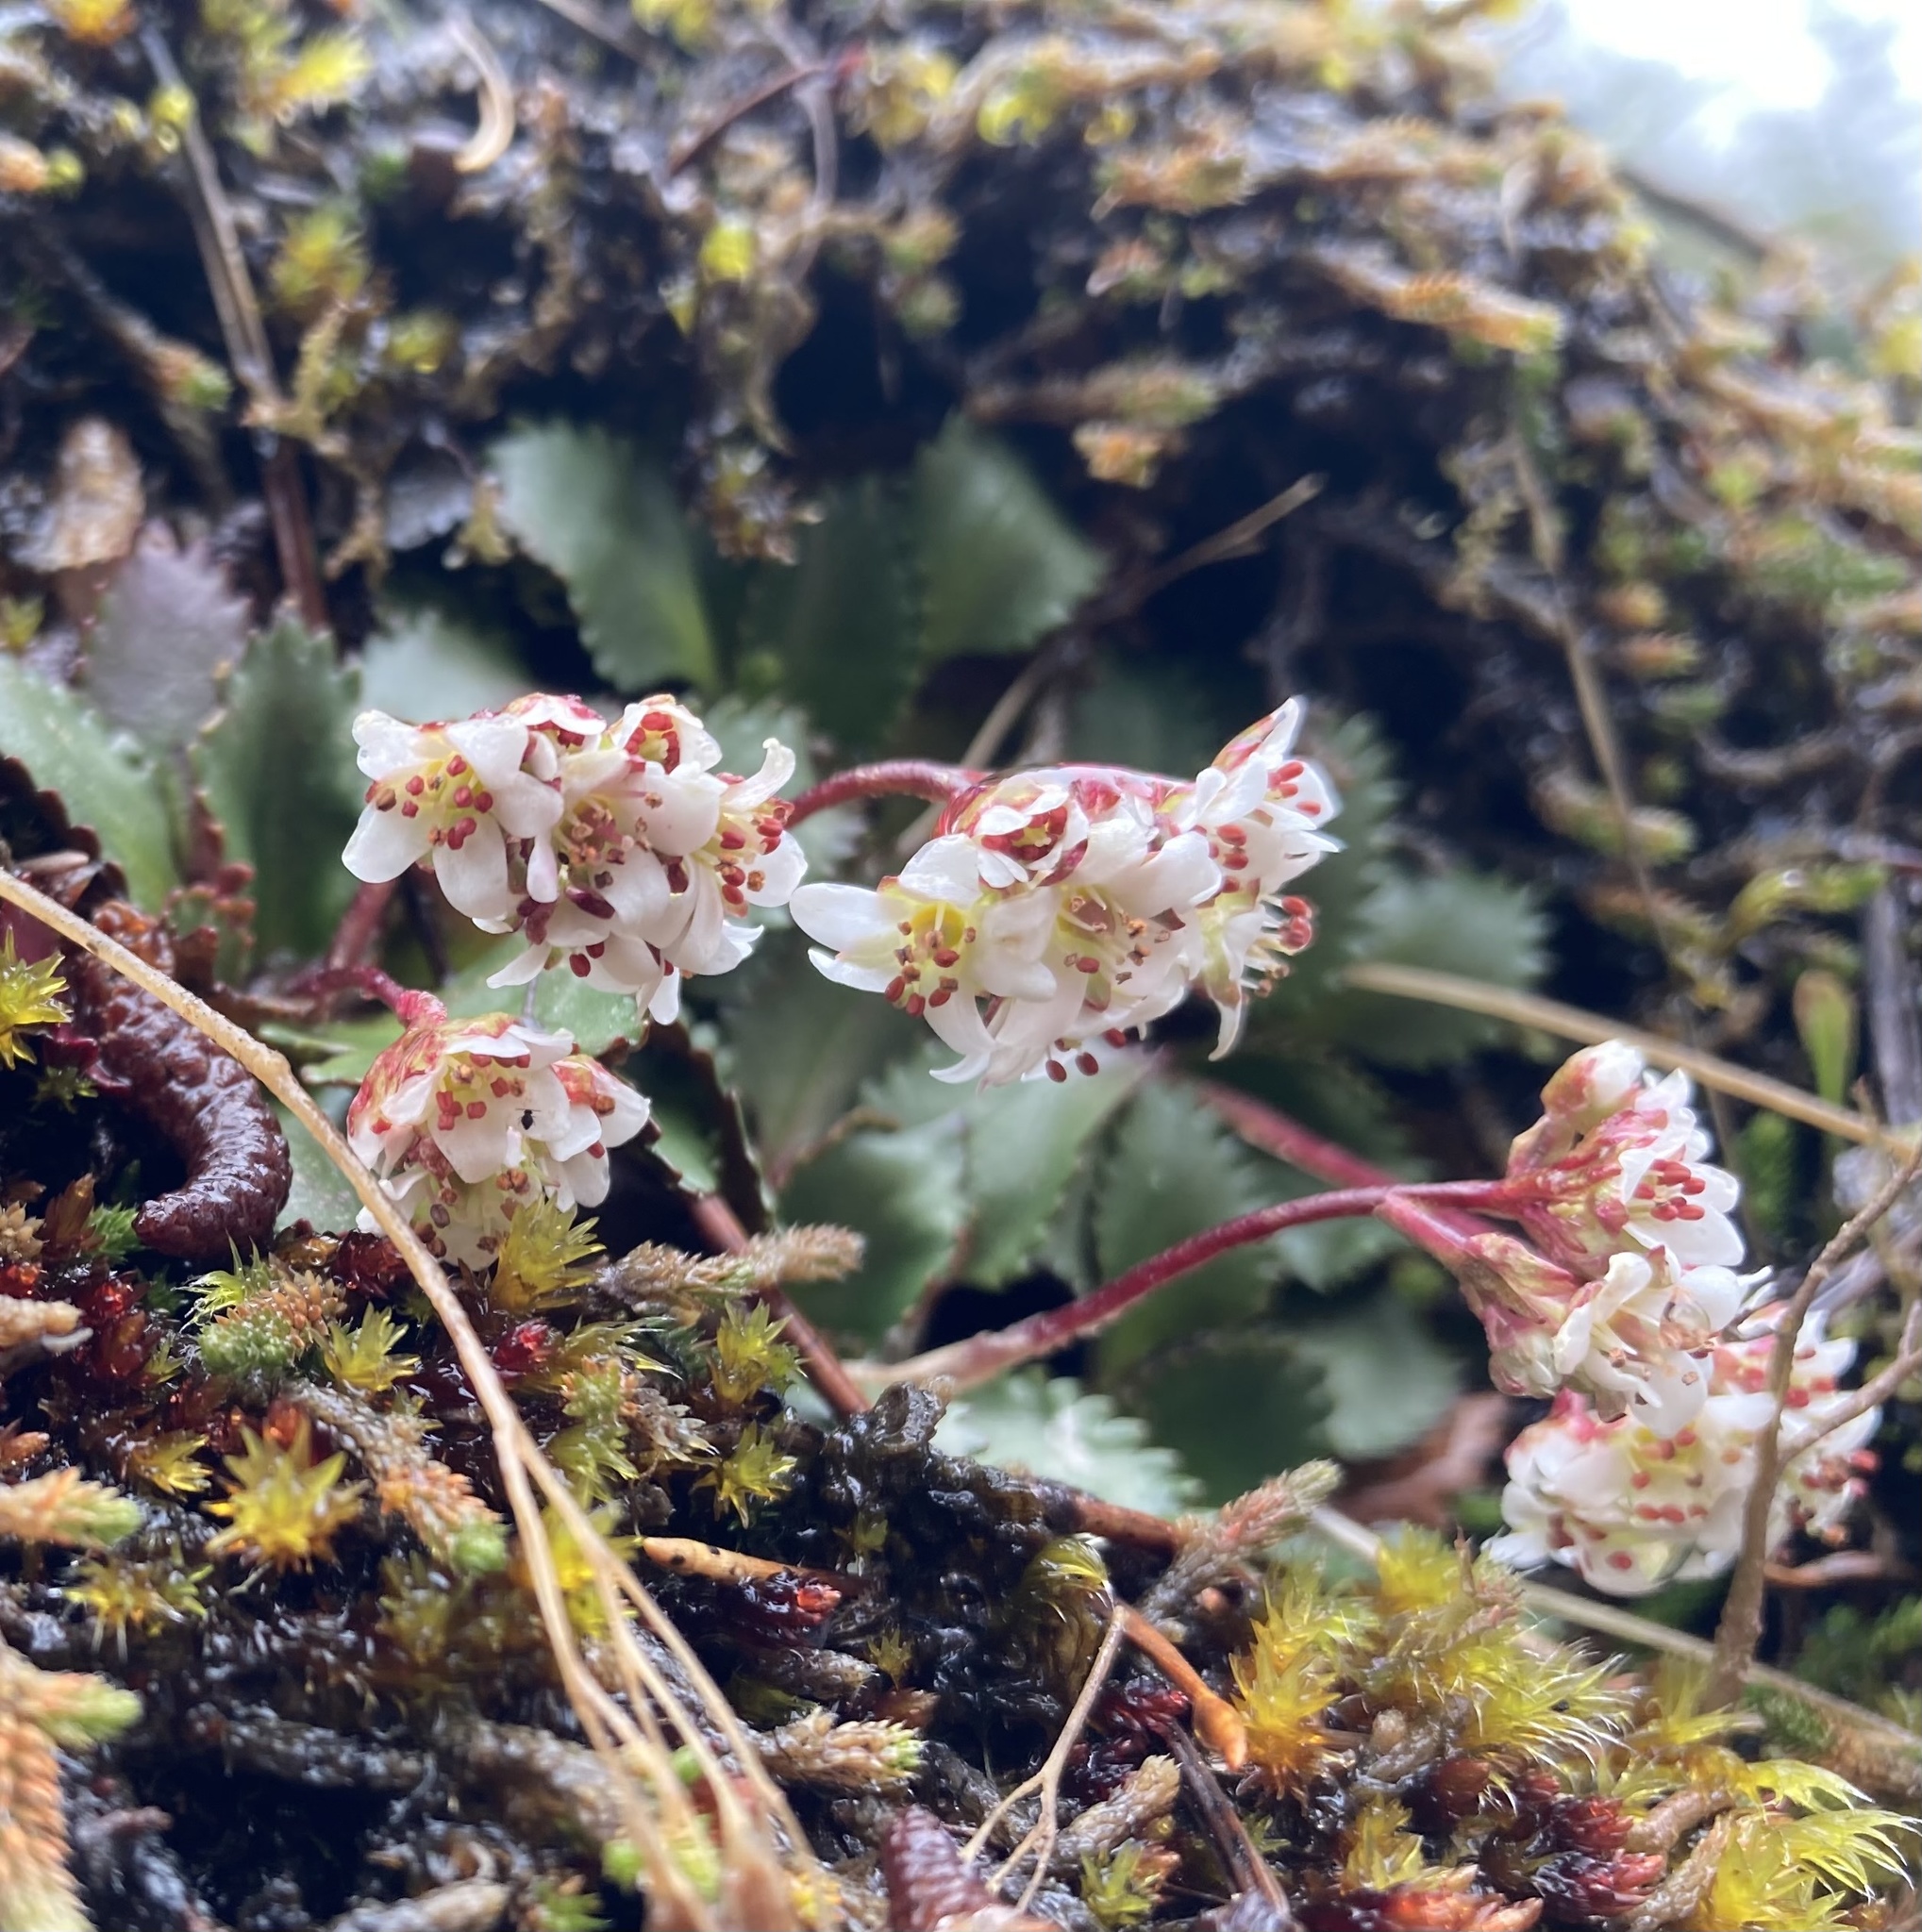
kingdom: Plantae
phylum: Tracheophyta
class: Magnoliopsida
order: Saxifragales
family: Saxifragaceae
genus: Micranthes
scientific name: Micranthes rufidula
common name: Rustyhair saxifrage
